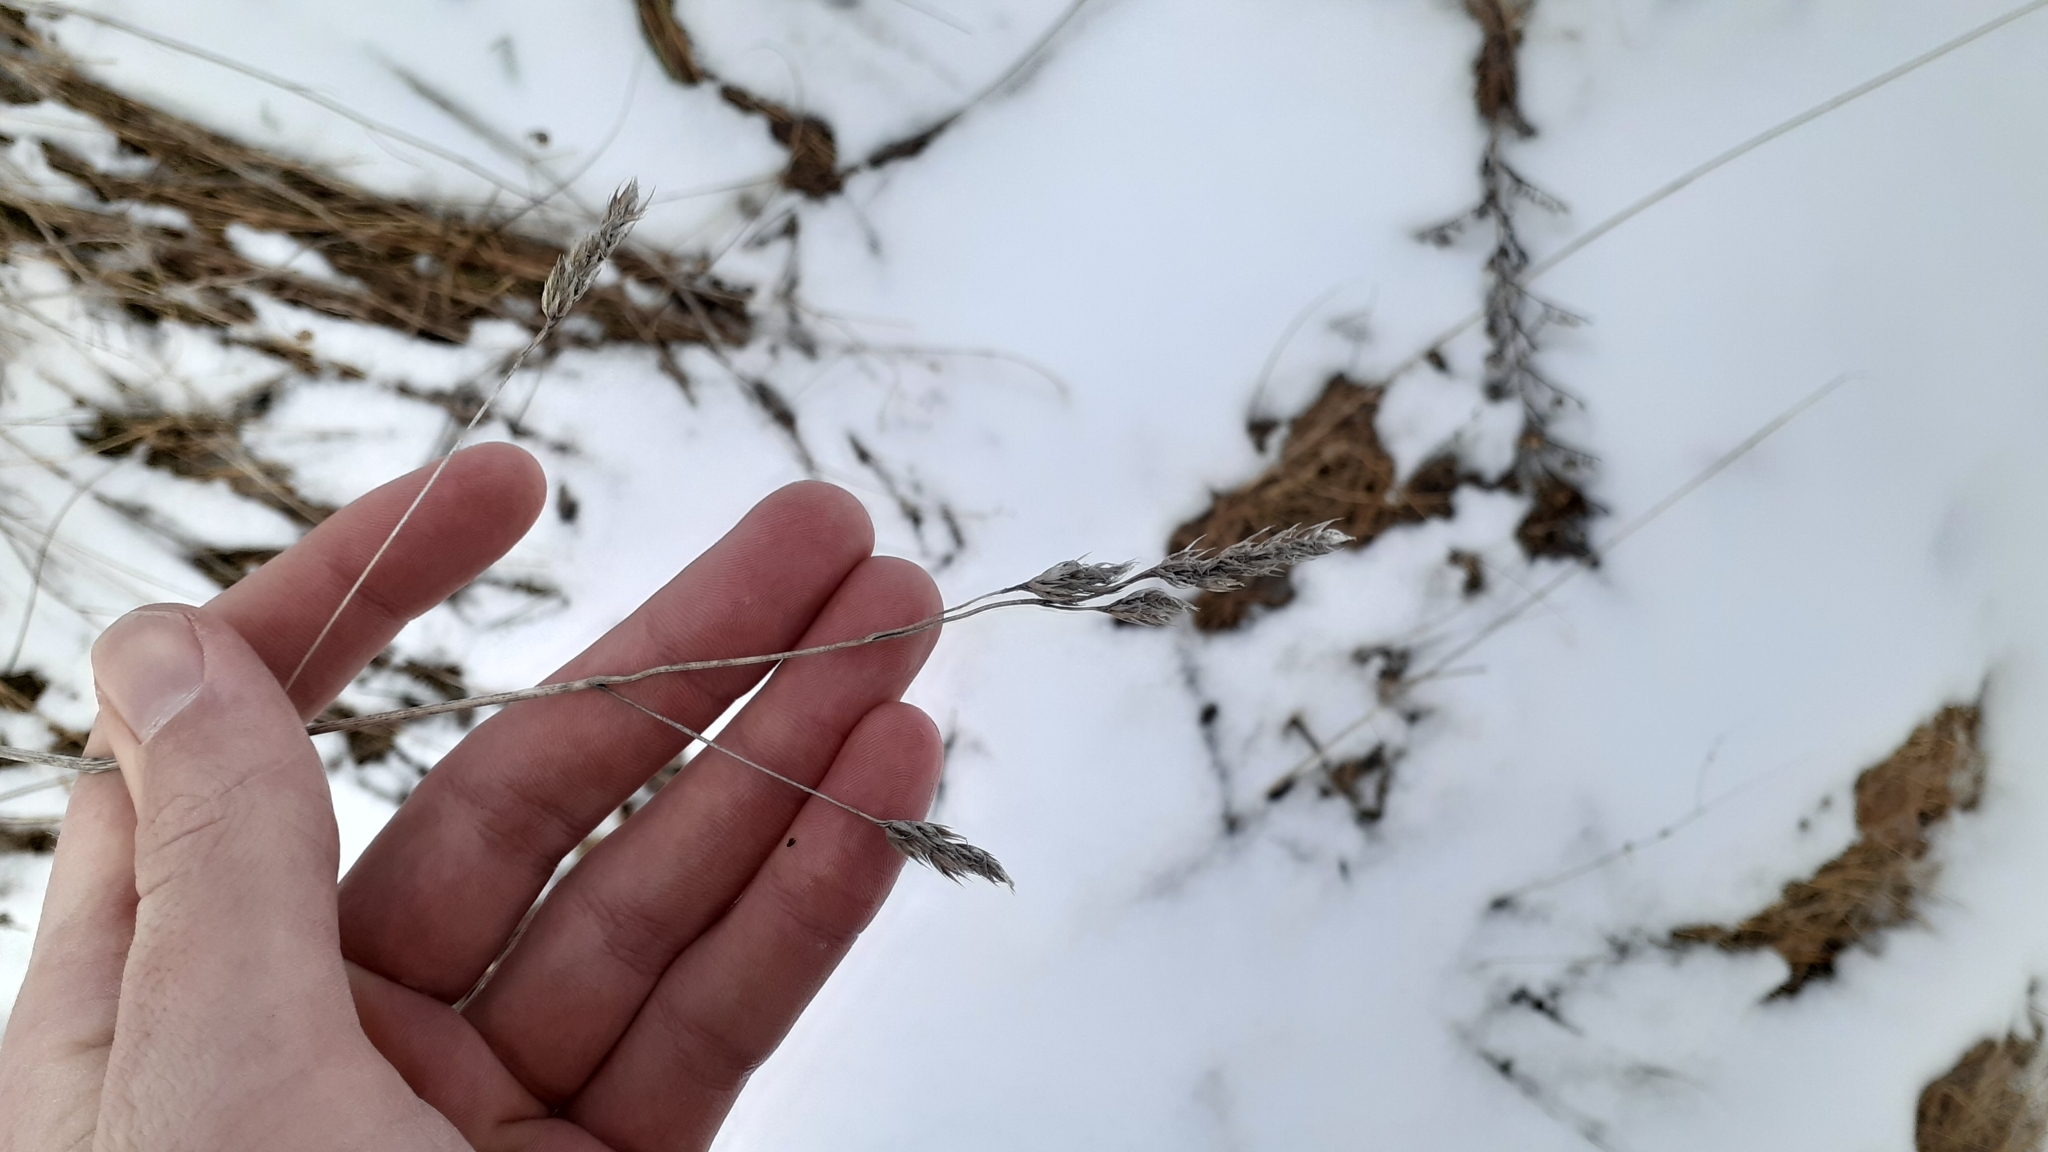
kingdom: Plantae
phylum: Tracheophyta
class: Liliopsida
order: Poales
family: Poaceae
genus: Dactylis
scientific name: Dactylis glomerata
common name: Orchardgrass
